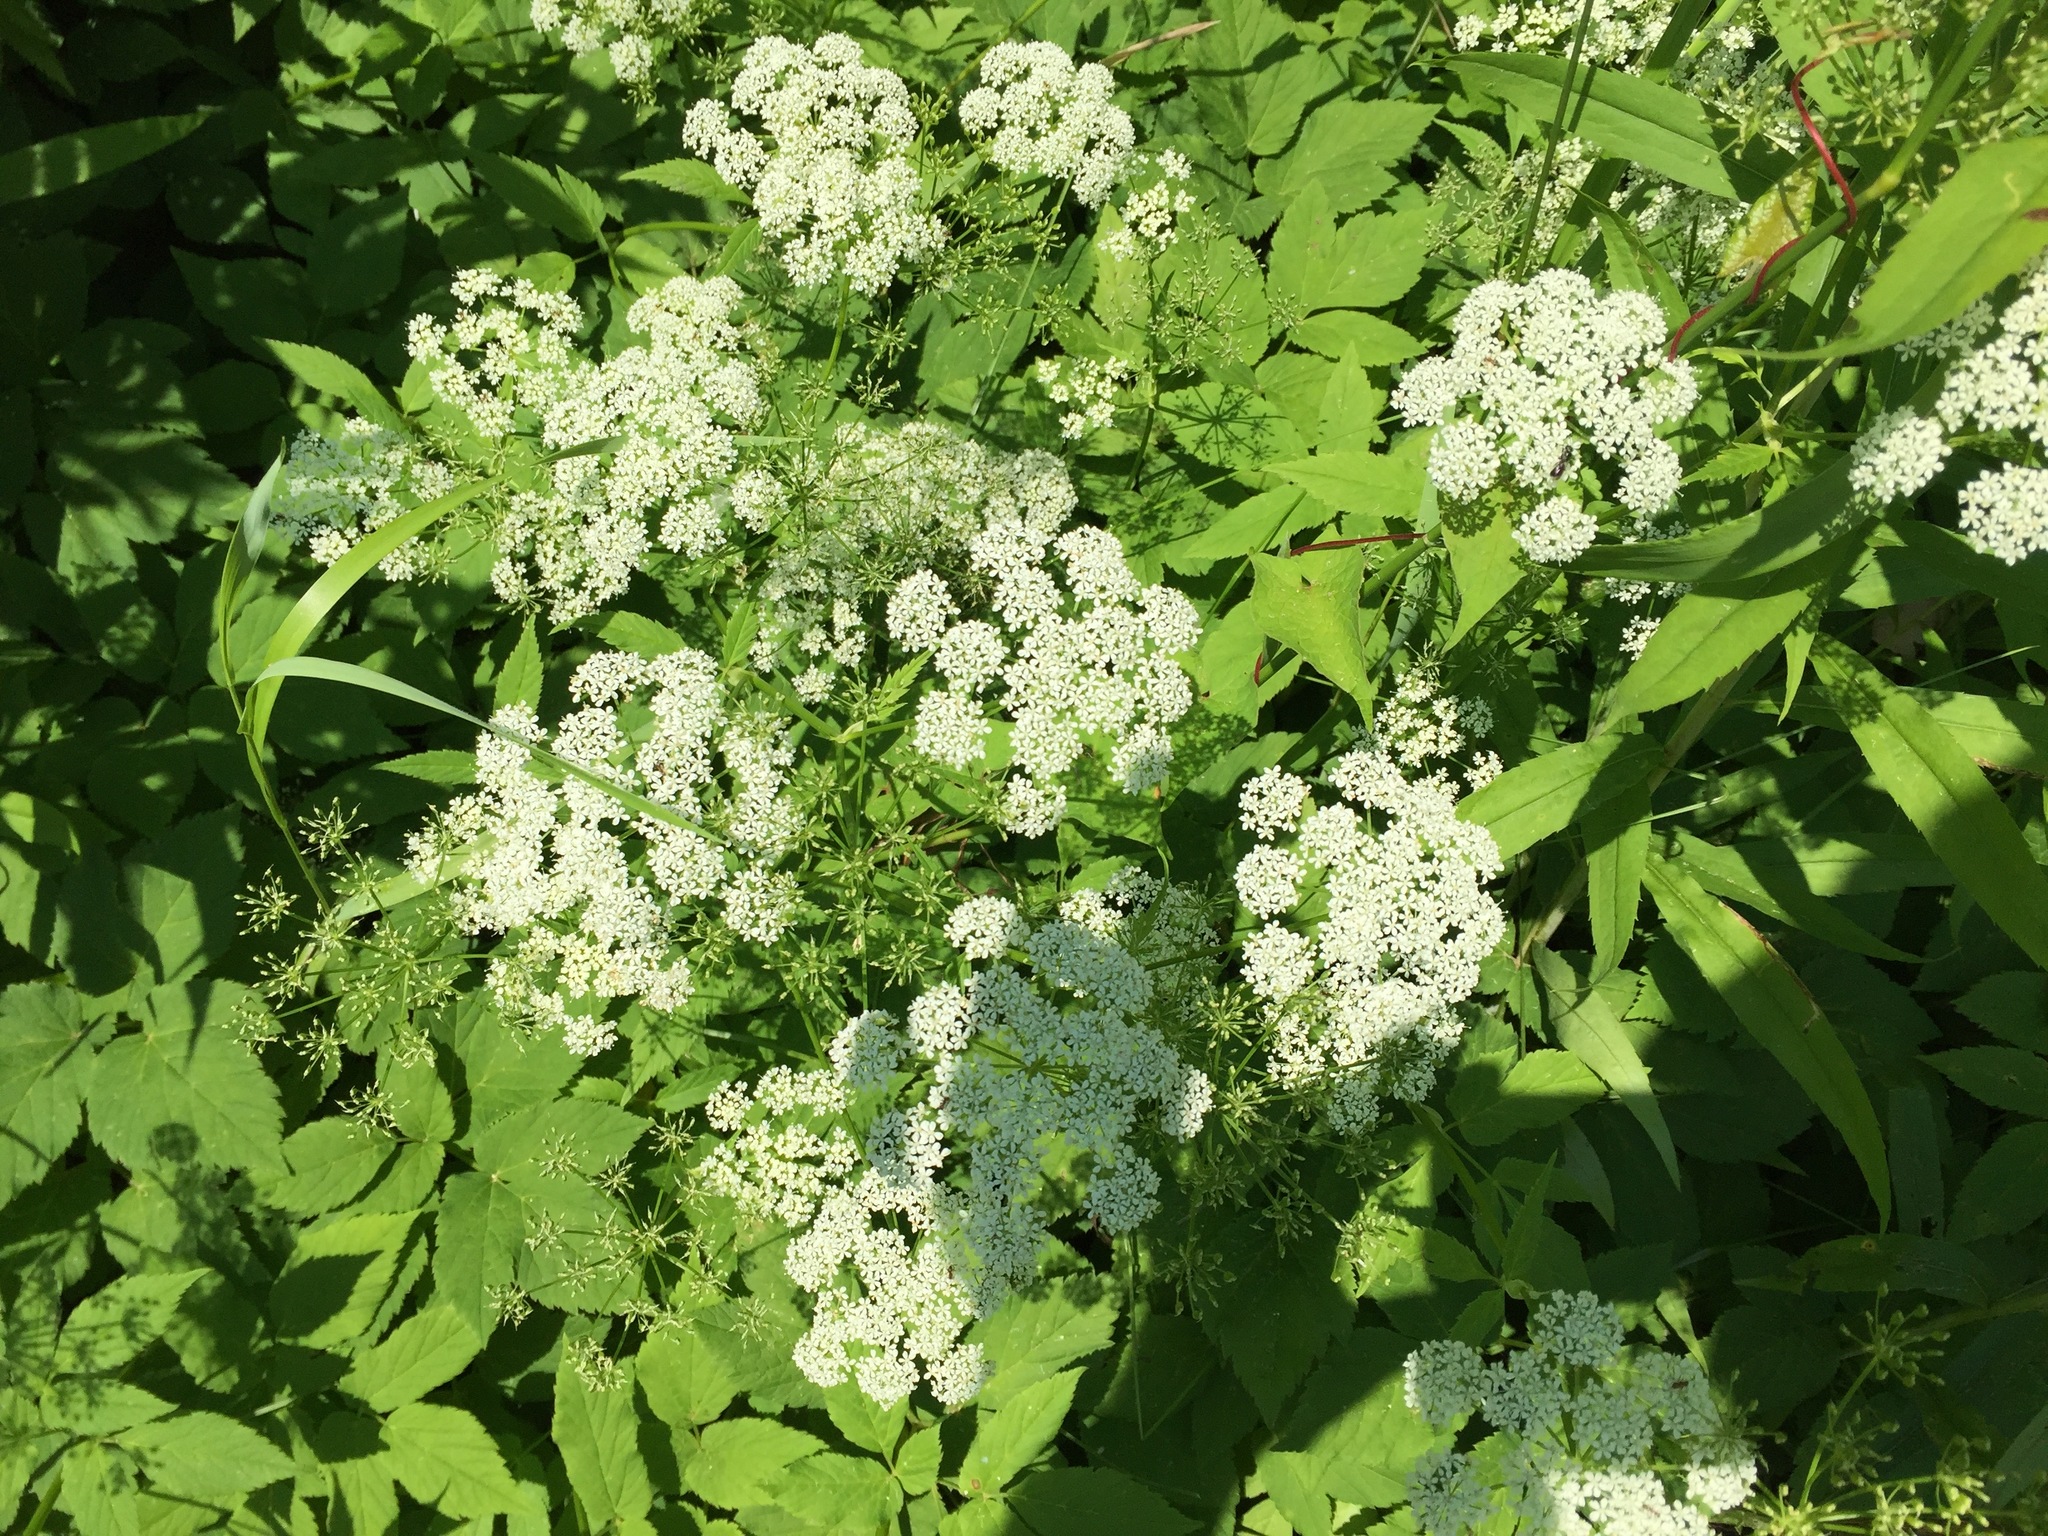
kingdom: Plantae
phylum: Tracheophyta
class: Magnoliopsida
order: Apiales
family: Apiaceae
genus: Aegopodium
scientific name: Aegopodium podagraria
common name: Ground-elder
